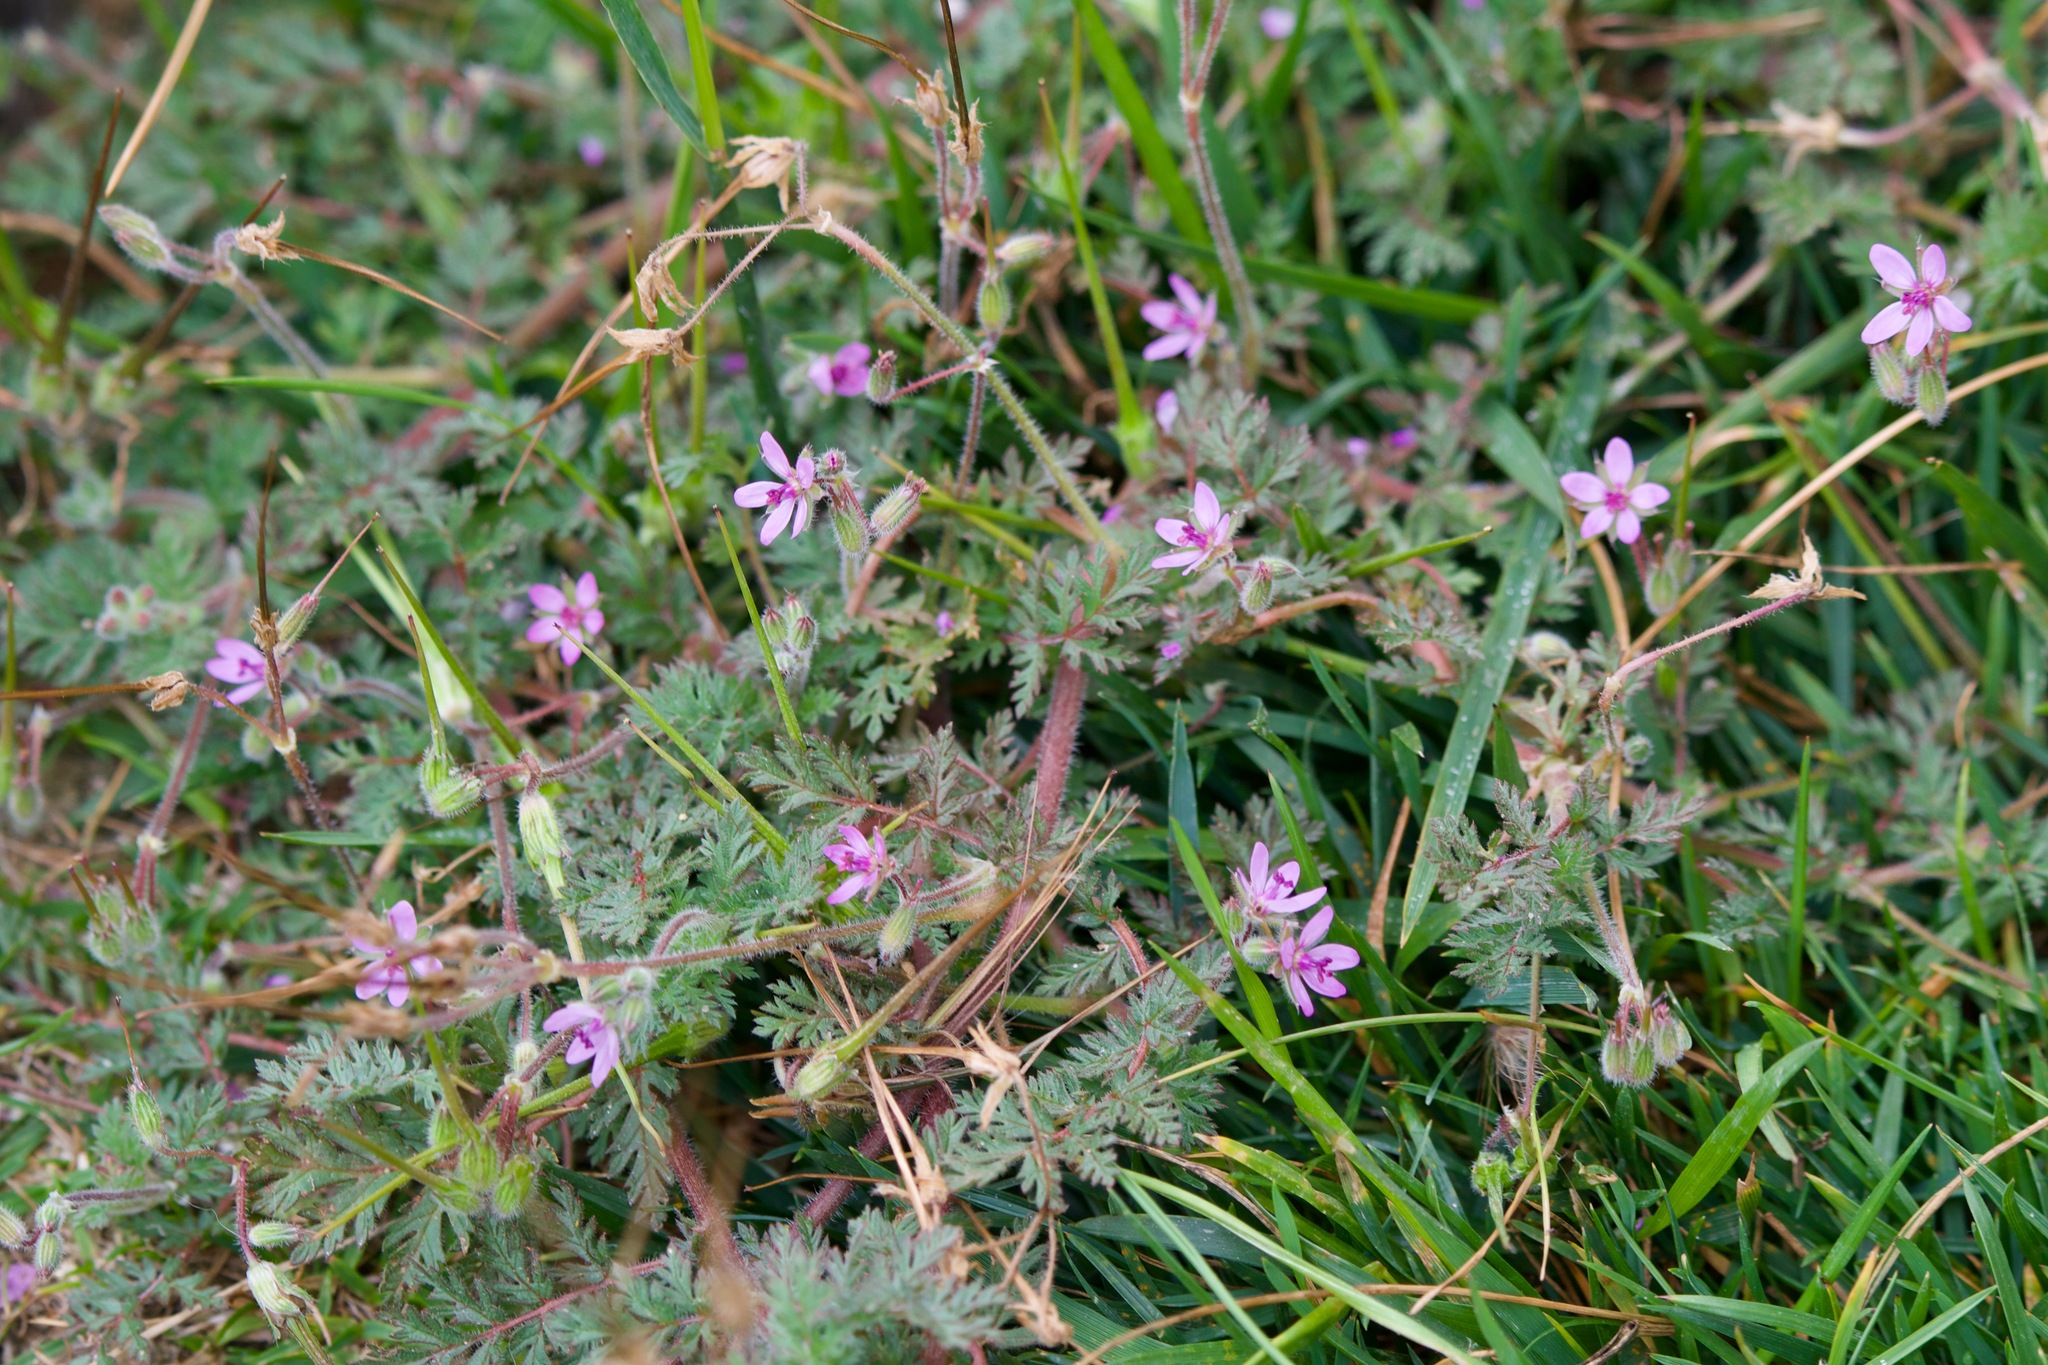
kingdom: Plantae
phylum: Tracheophyta
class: Magnoliopsida
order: Geraniales
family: Geraniaceae
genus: Erodium
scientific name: Erodium cicutarium
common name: Common stork's-bill
